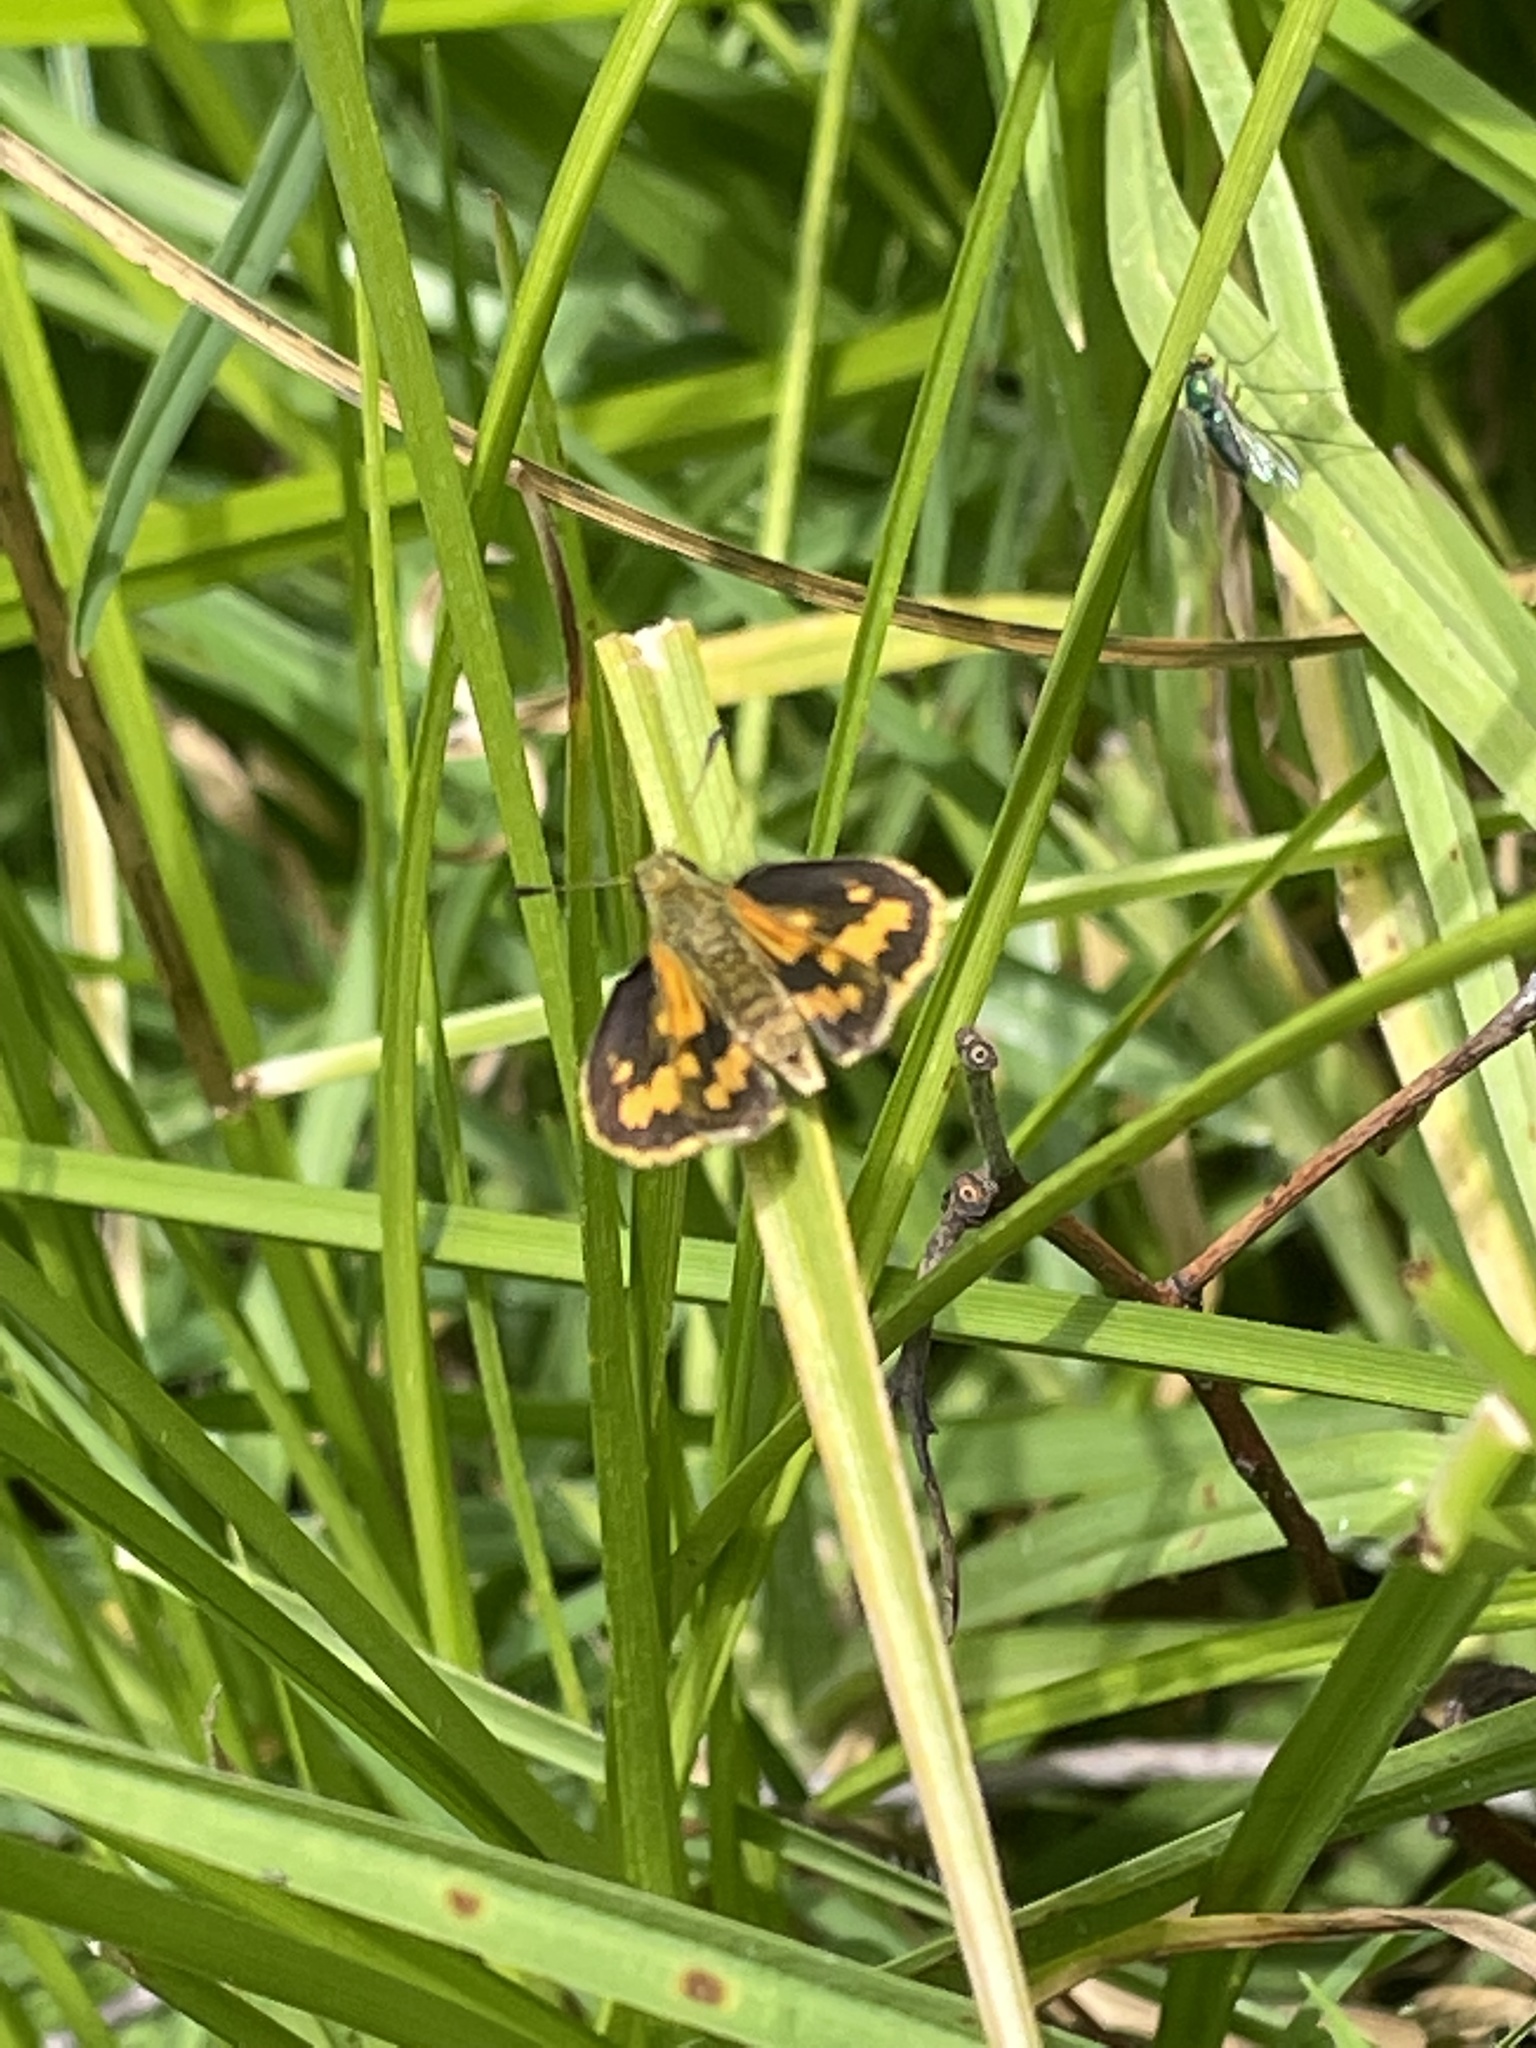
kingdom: Animalia
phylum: Arthropoda
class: Insecta
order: Lepidoptera
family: Hesperiidae
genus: Ocybadistes
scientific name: Ocybadistes walkeri
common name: Yellow-banded dart
